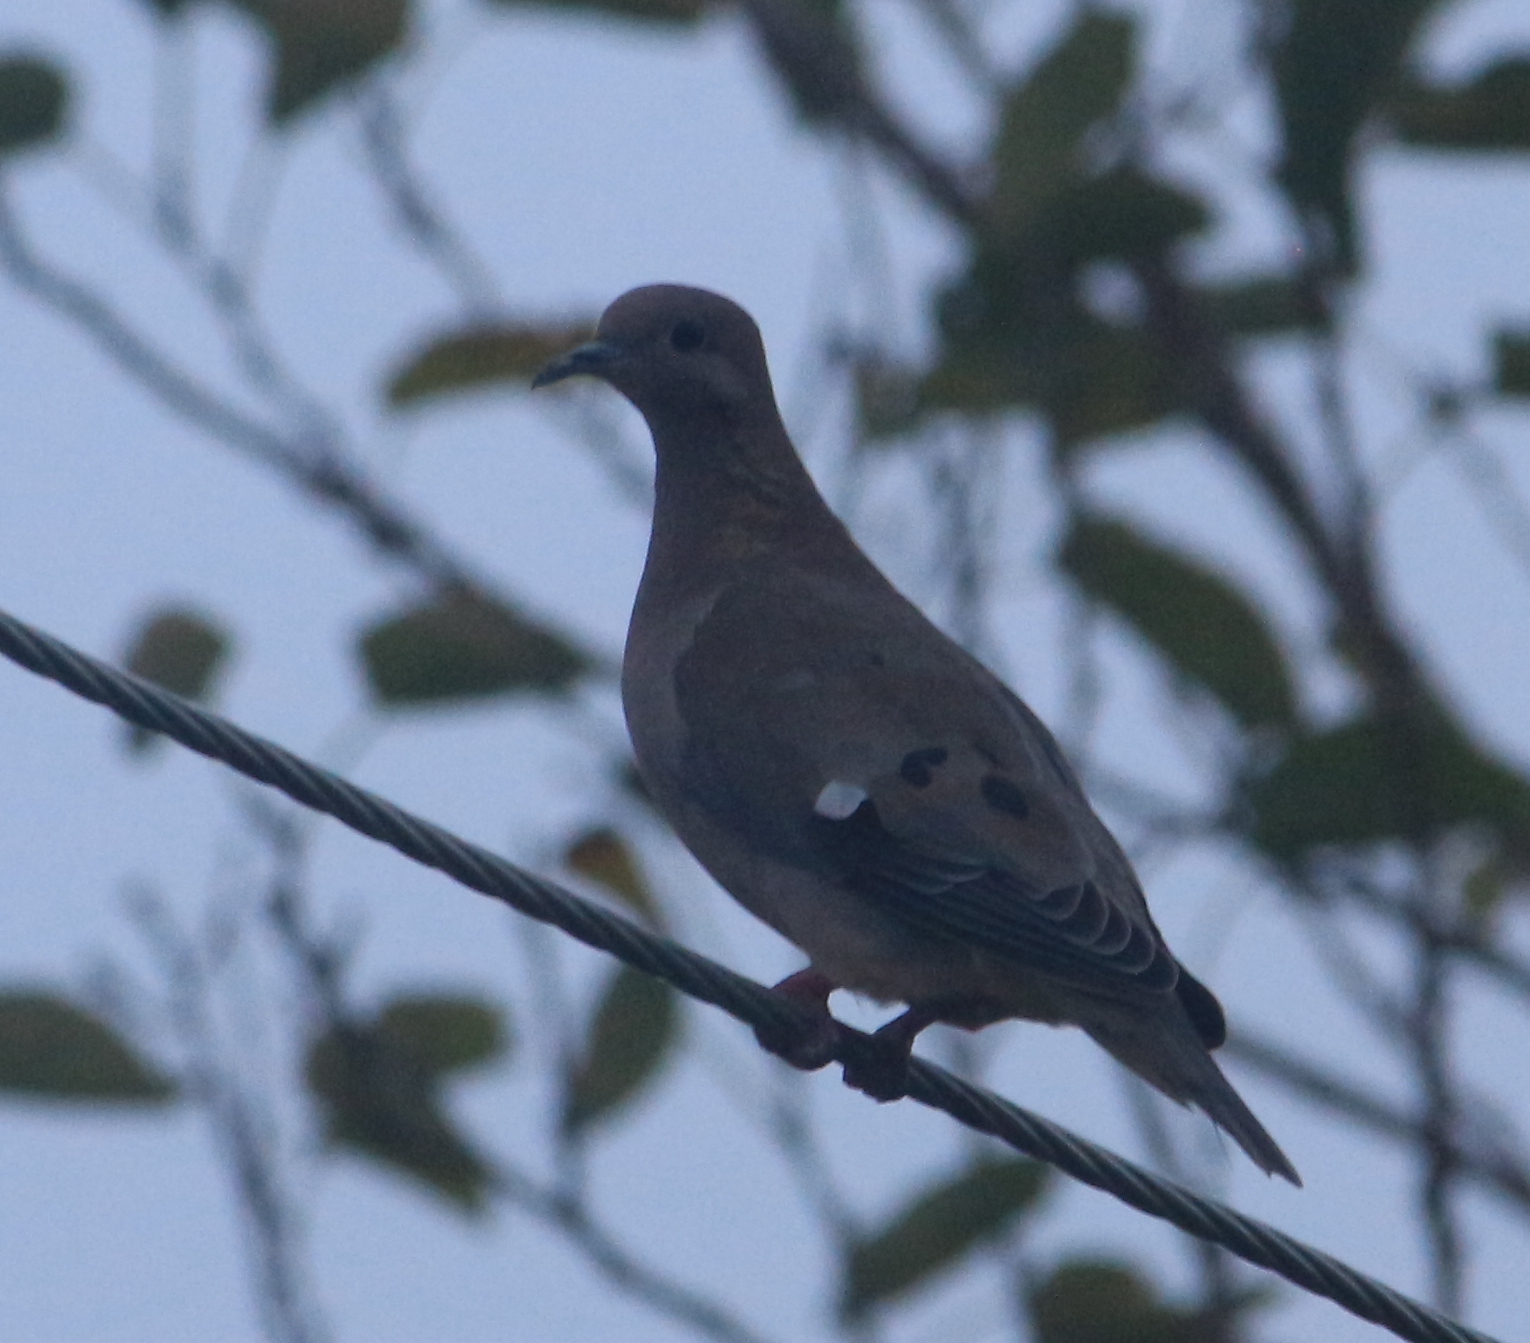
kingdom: Animalia
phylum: Chordata
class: Aves
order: Columbiformes
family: Columbidae
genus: Zenaida
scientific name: Zenaida auriculata
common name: Eared dove
